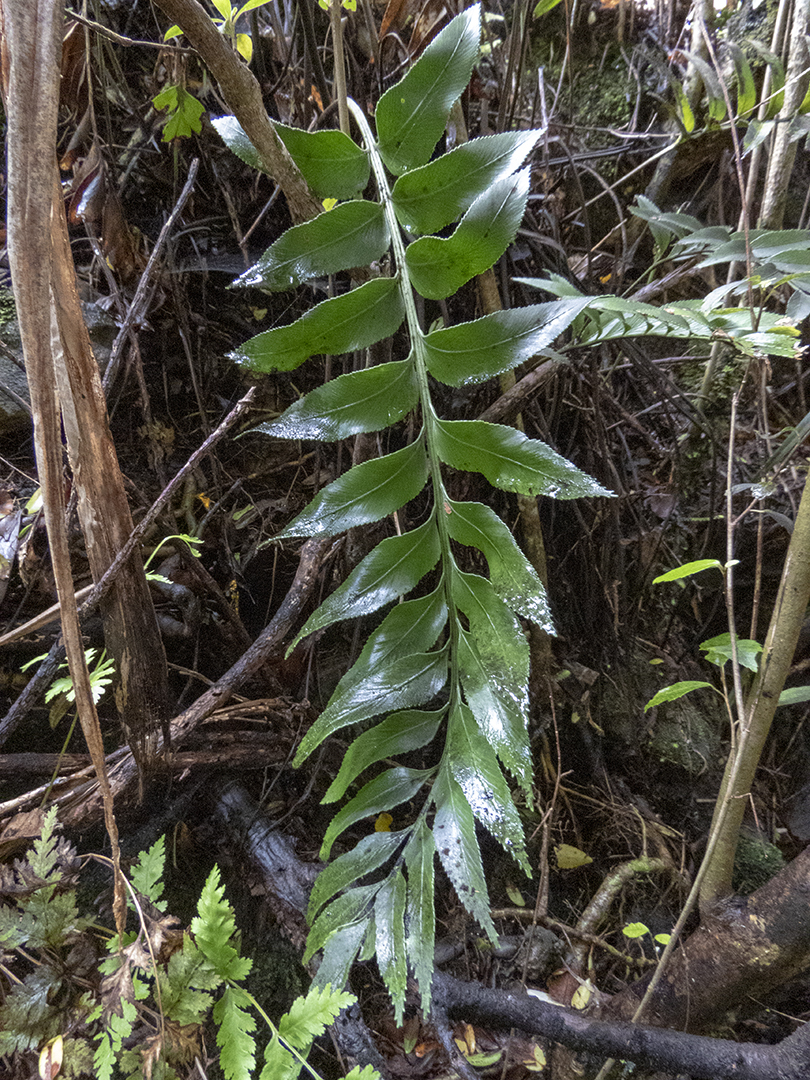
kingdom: Plantae
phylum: Tracheophyta
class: Polypodiopsida
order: Polypodiales
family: Aspleniaceae
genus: Asplenium
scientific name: Asplenium obtusatum
